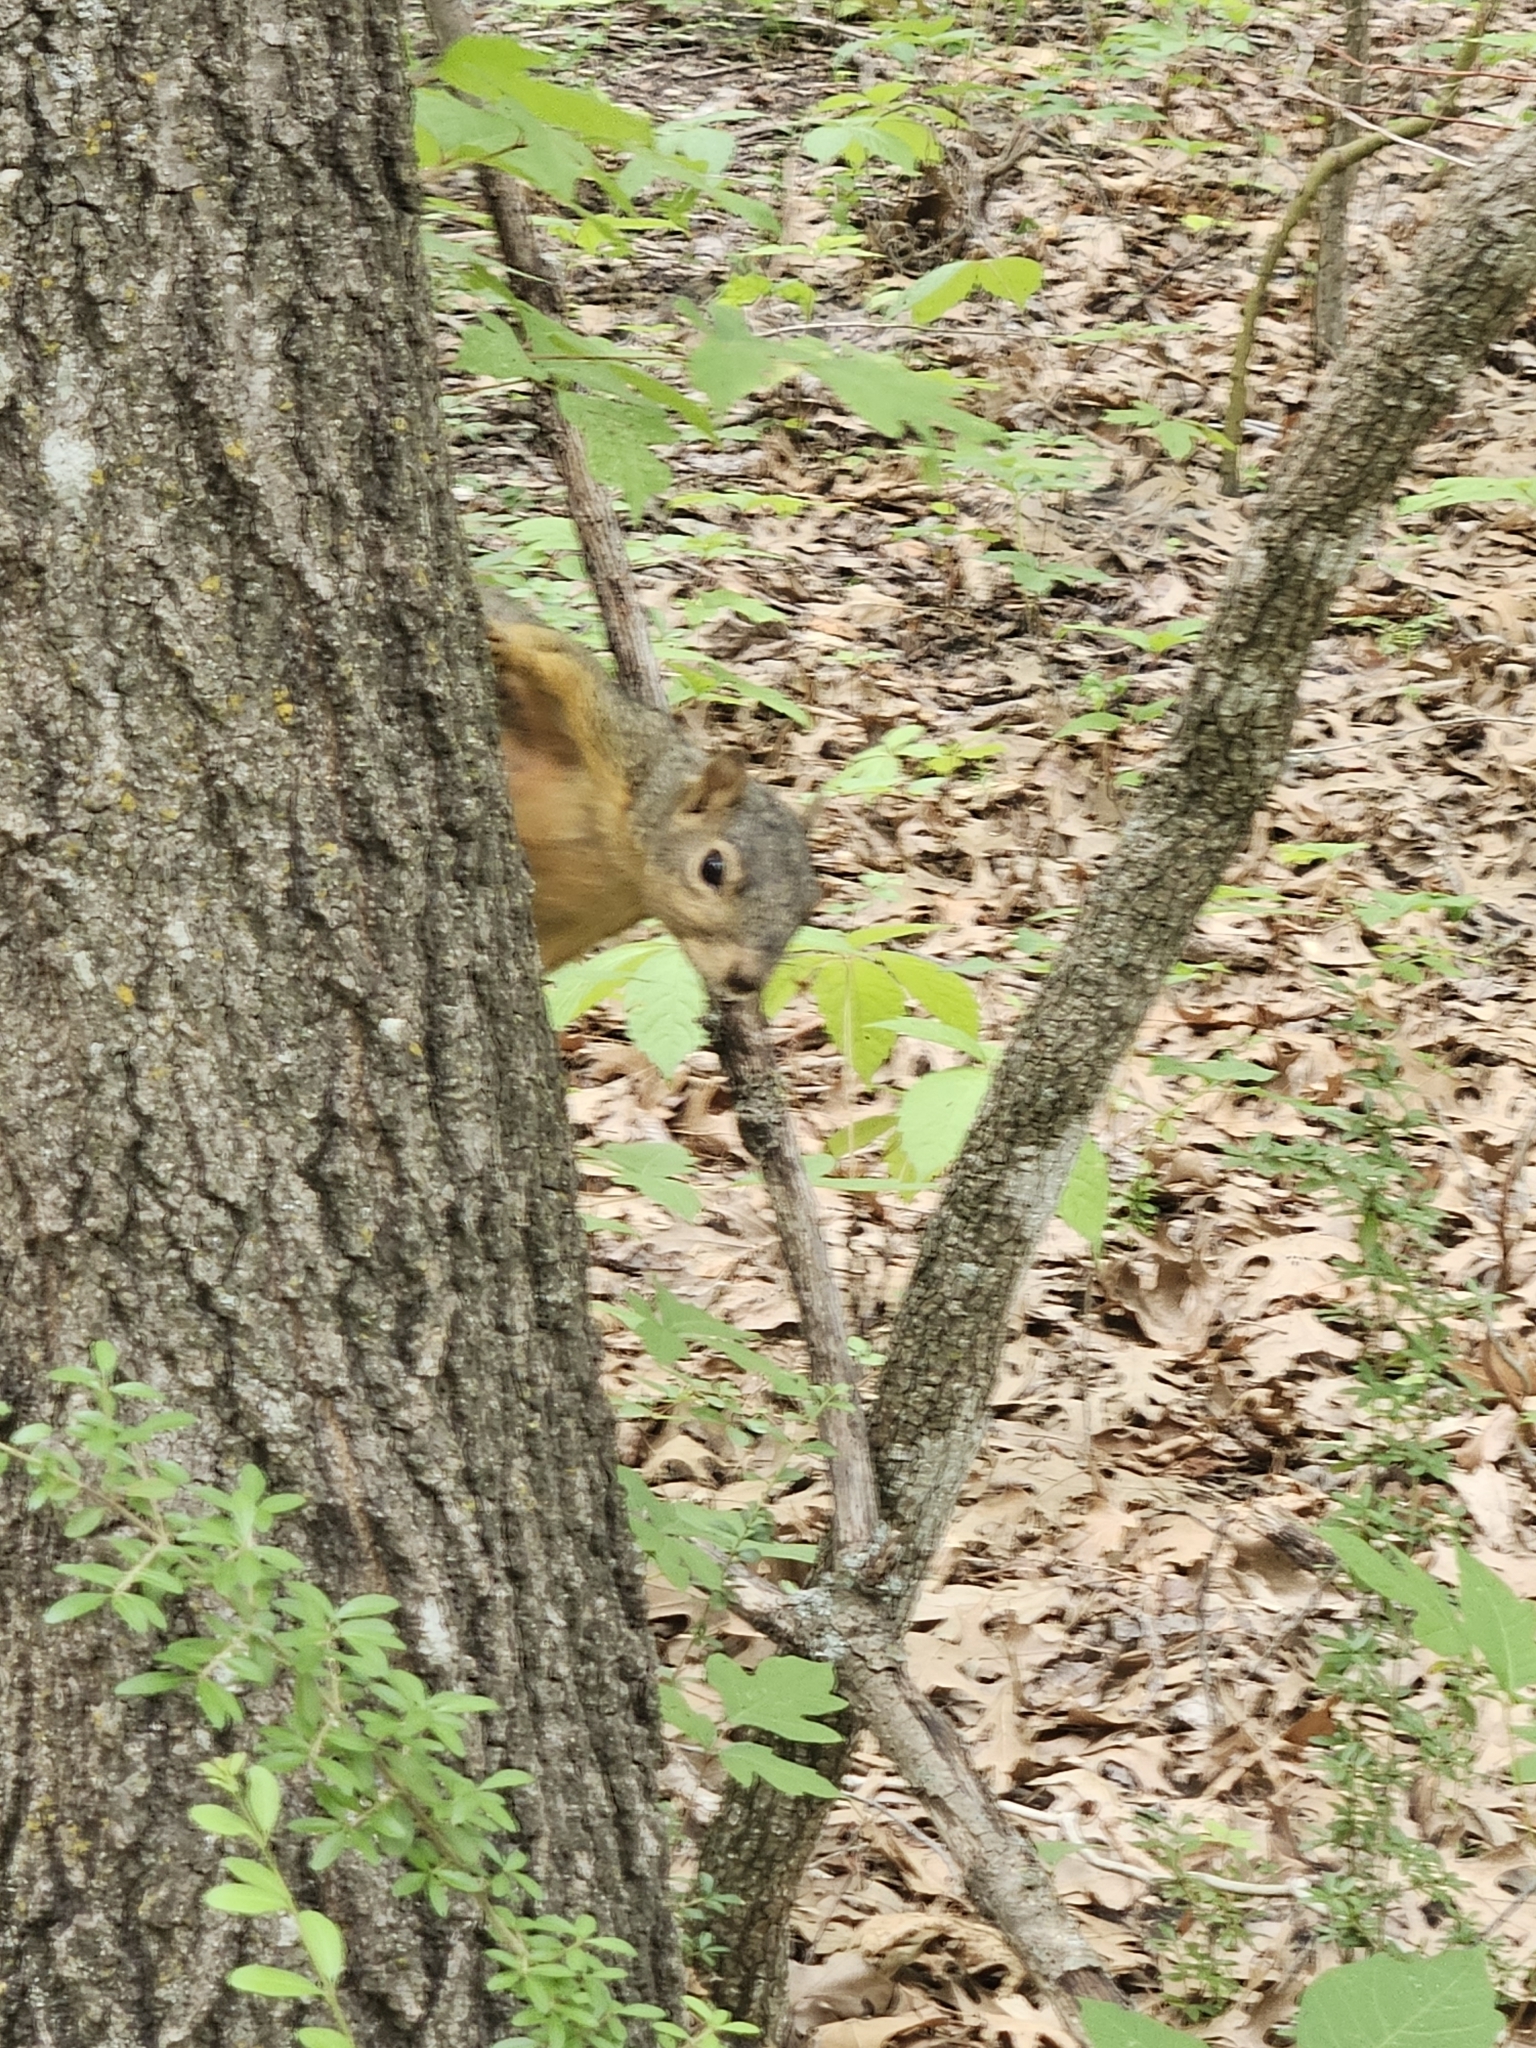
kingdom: Animalia
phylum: Chordata
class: Mammalia
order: Rodentia
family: Sciuridae
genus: Sciurus
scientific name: Sciurus niger
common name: Fox squirrel
